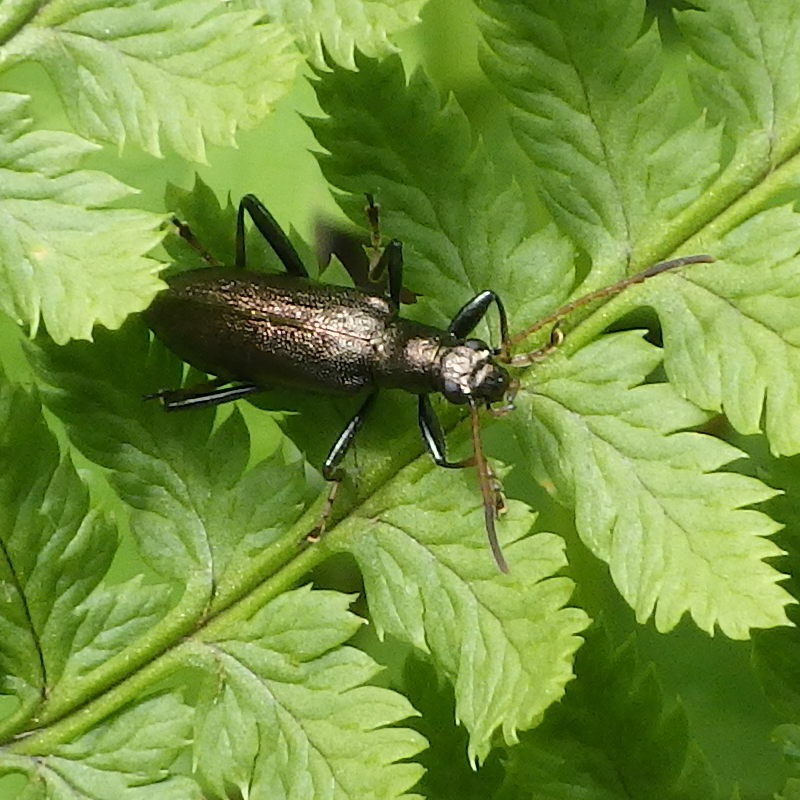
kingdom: Animalia
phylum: Arthropoda
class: Insecta
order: Coleoptera
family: Tenebrionidae
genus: Arthromacra
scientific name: Arthromacra aenea
